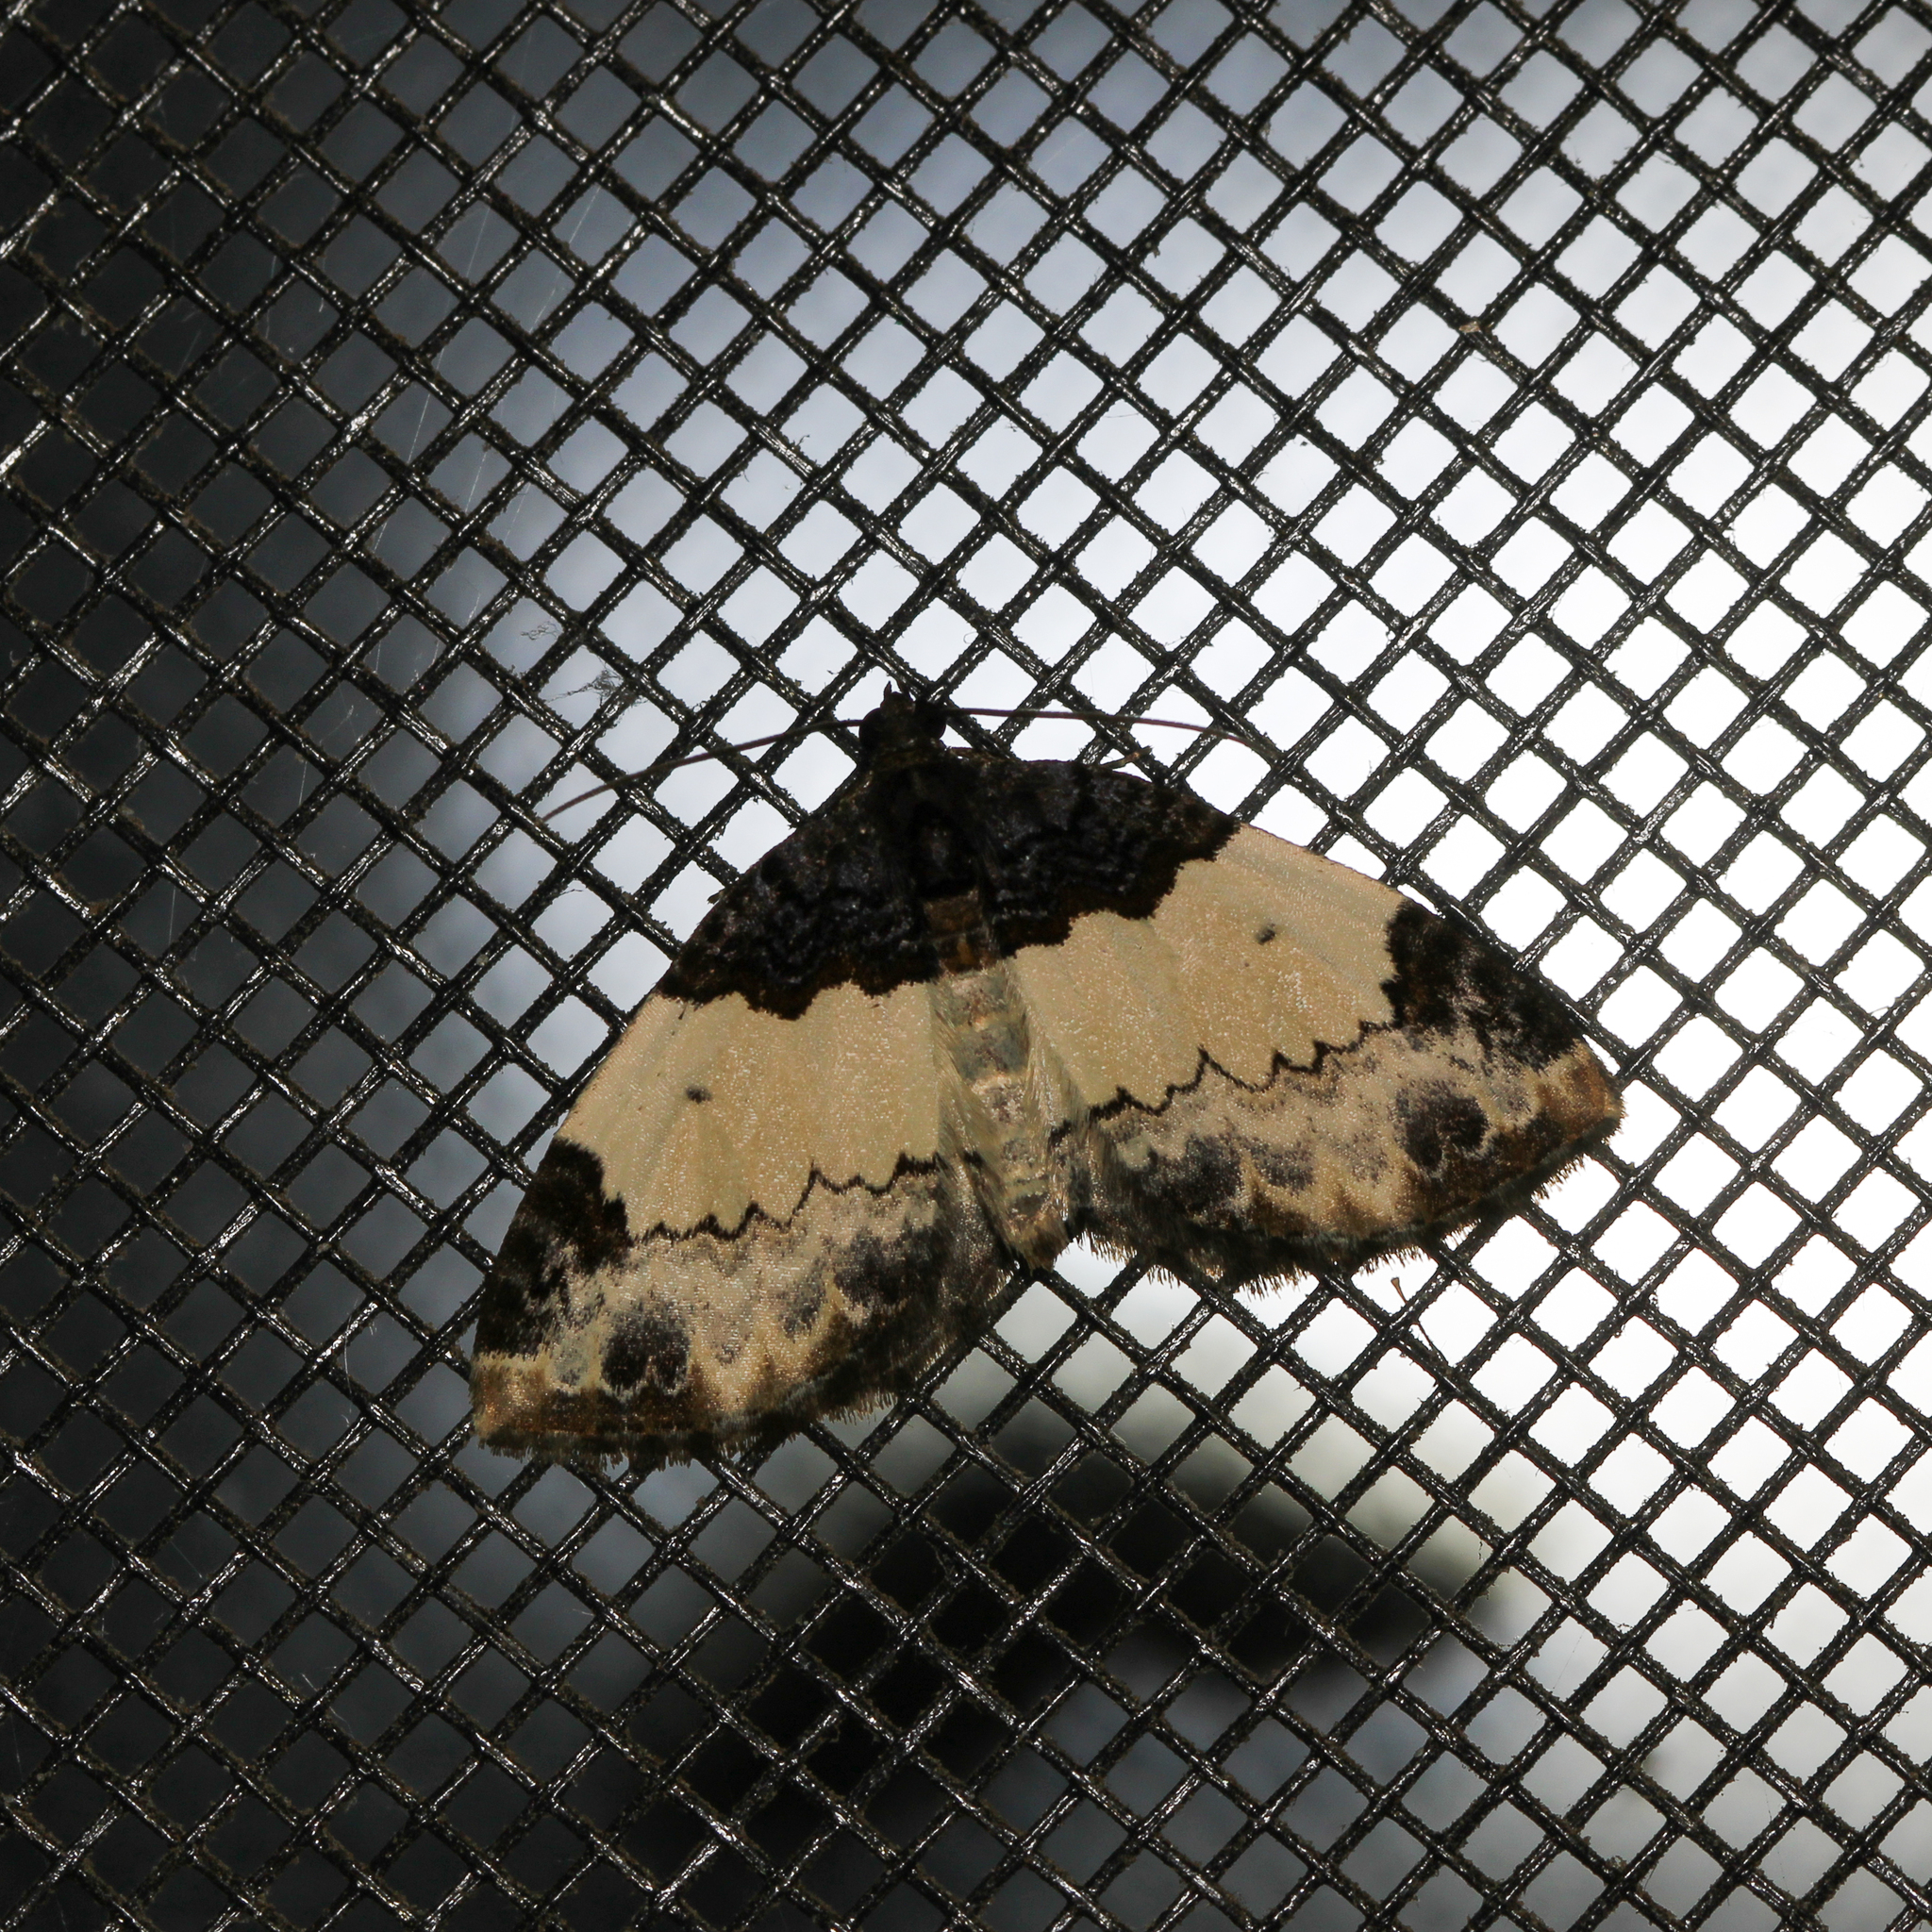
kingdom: Animalia
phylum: Arthropoda
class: Insecta
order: Lepidoptera
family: Geometridae
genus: Mesoleuca
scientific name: Mesoleuca ruficillata
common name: White-ribboned carpet moth
